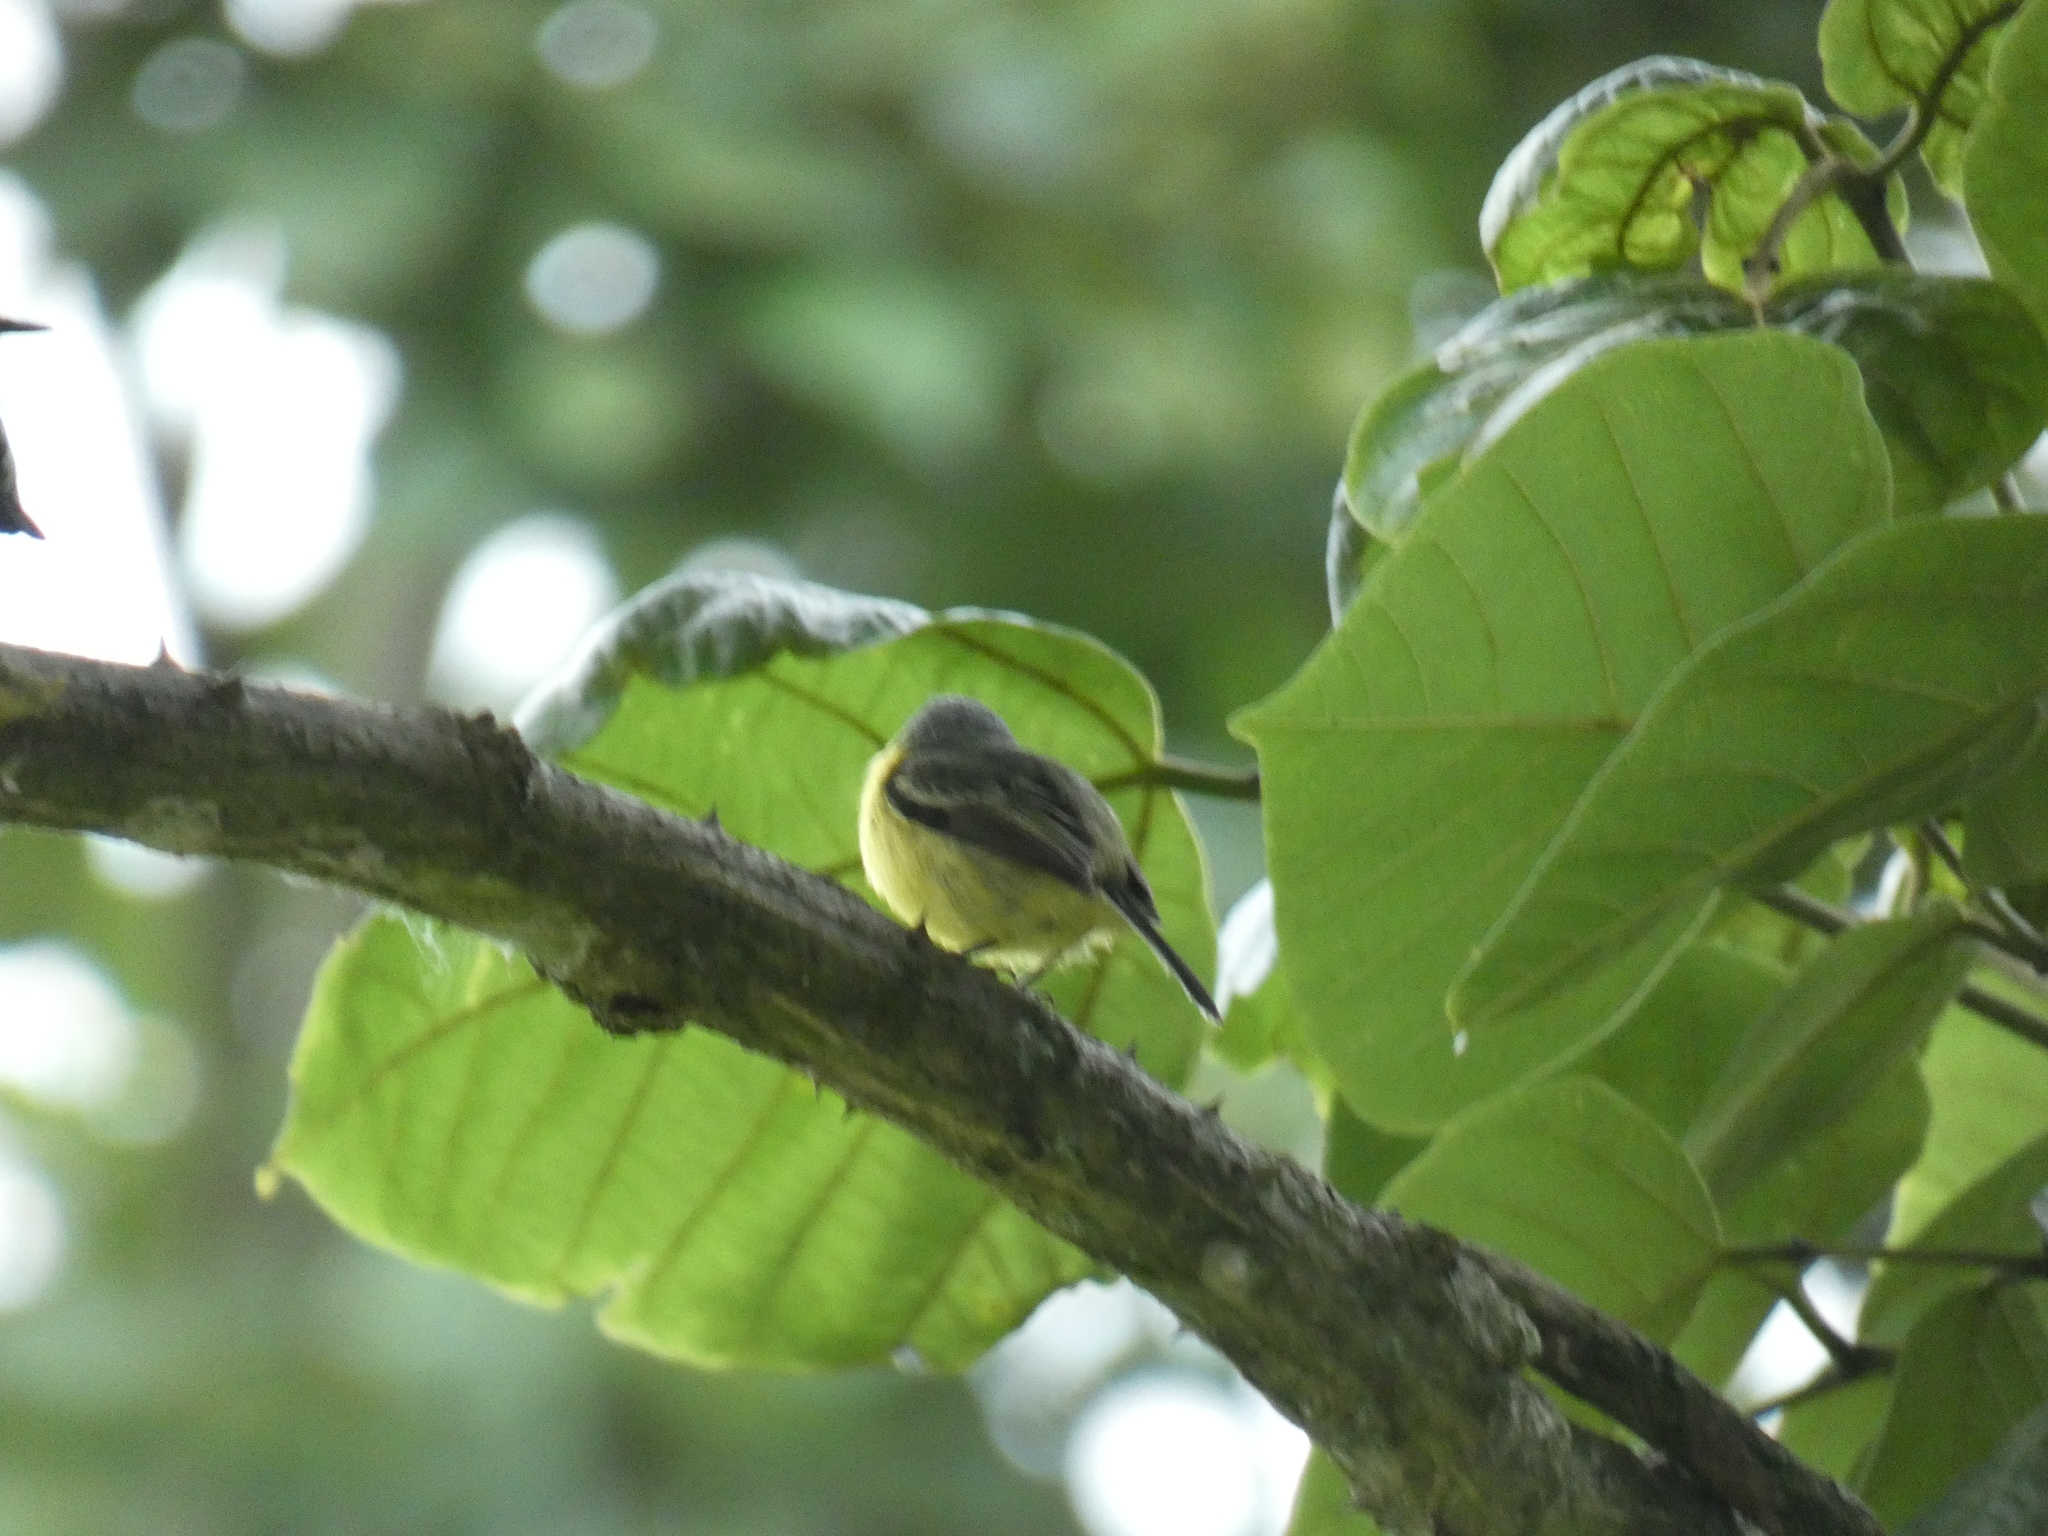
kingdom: Animalia
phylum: Chordata
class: Aves
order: Passeriformes
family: Tyrannidae
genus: Todirostrum
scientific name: Todirostrum cinereum
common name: Common tody-flycatcher
